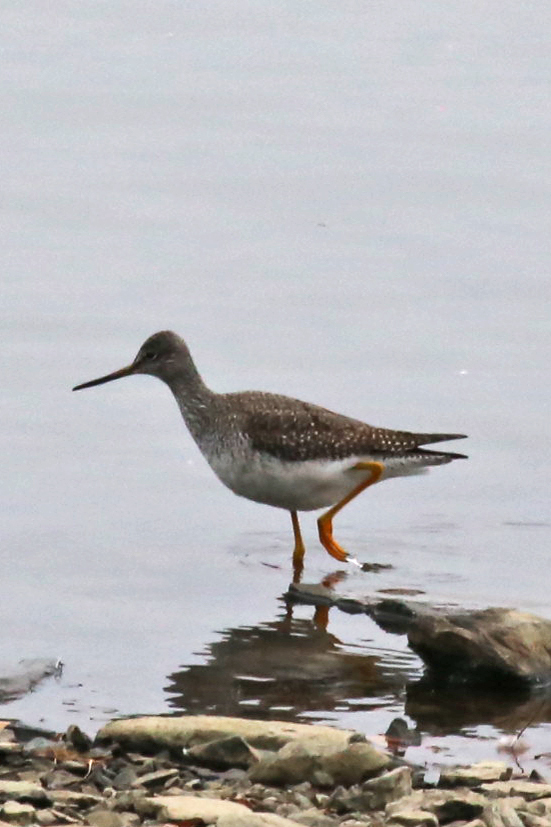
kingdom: Animalia
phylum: Chordata
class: Aves
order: Charadriiformes
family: Scolopacidae
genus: Tringa
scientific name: Tringa melanoleuca
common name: Greater yellowlegs
